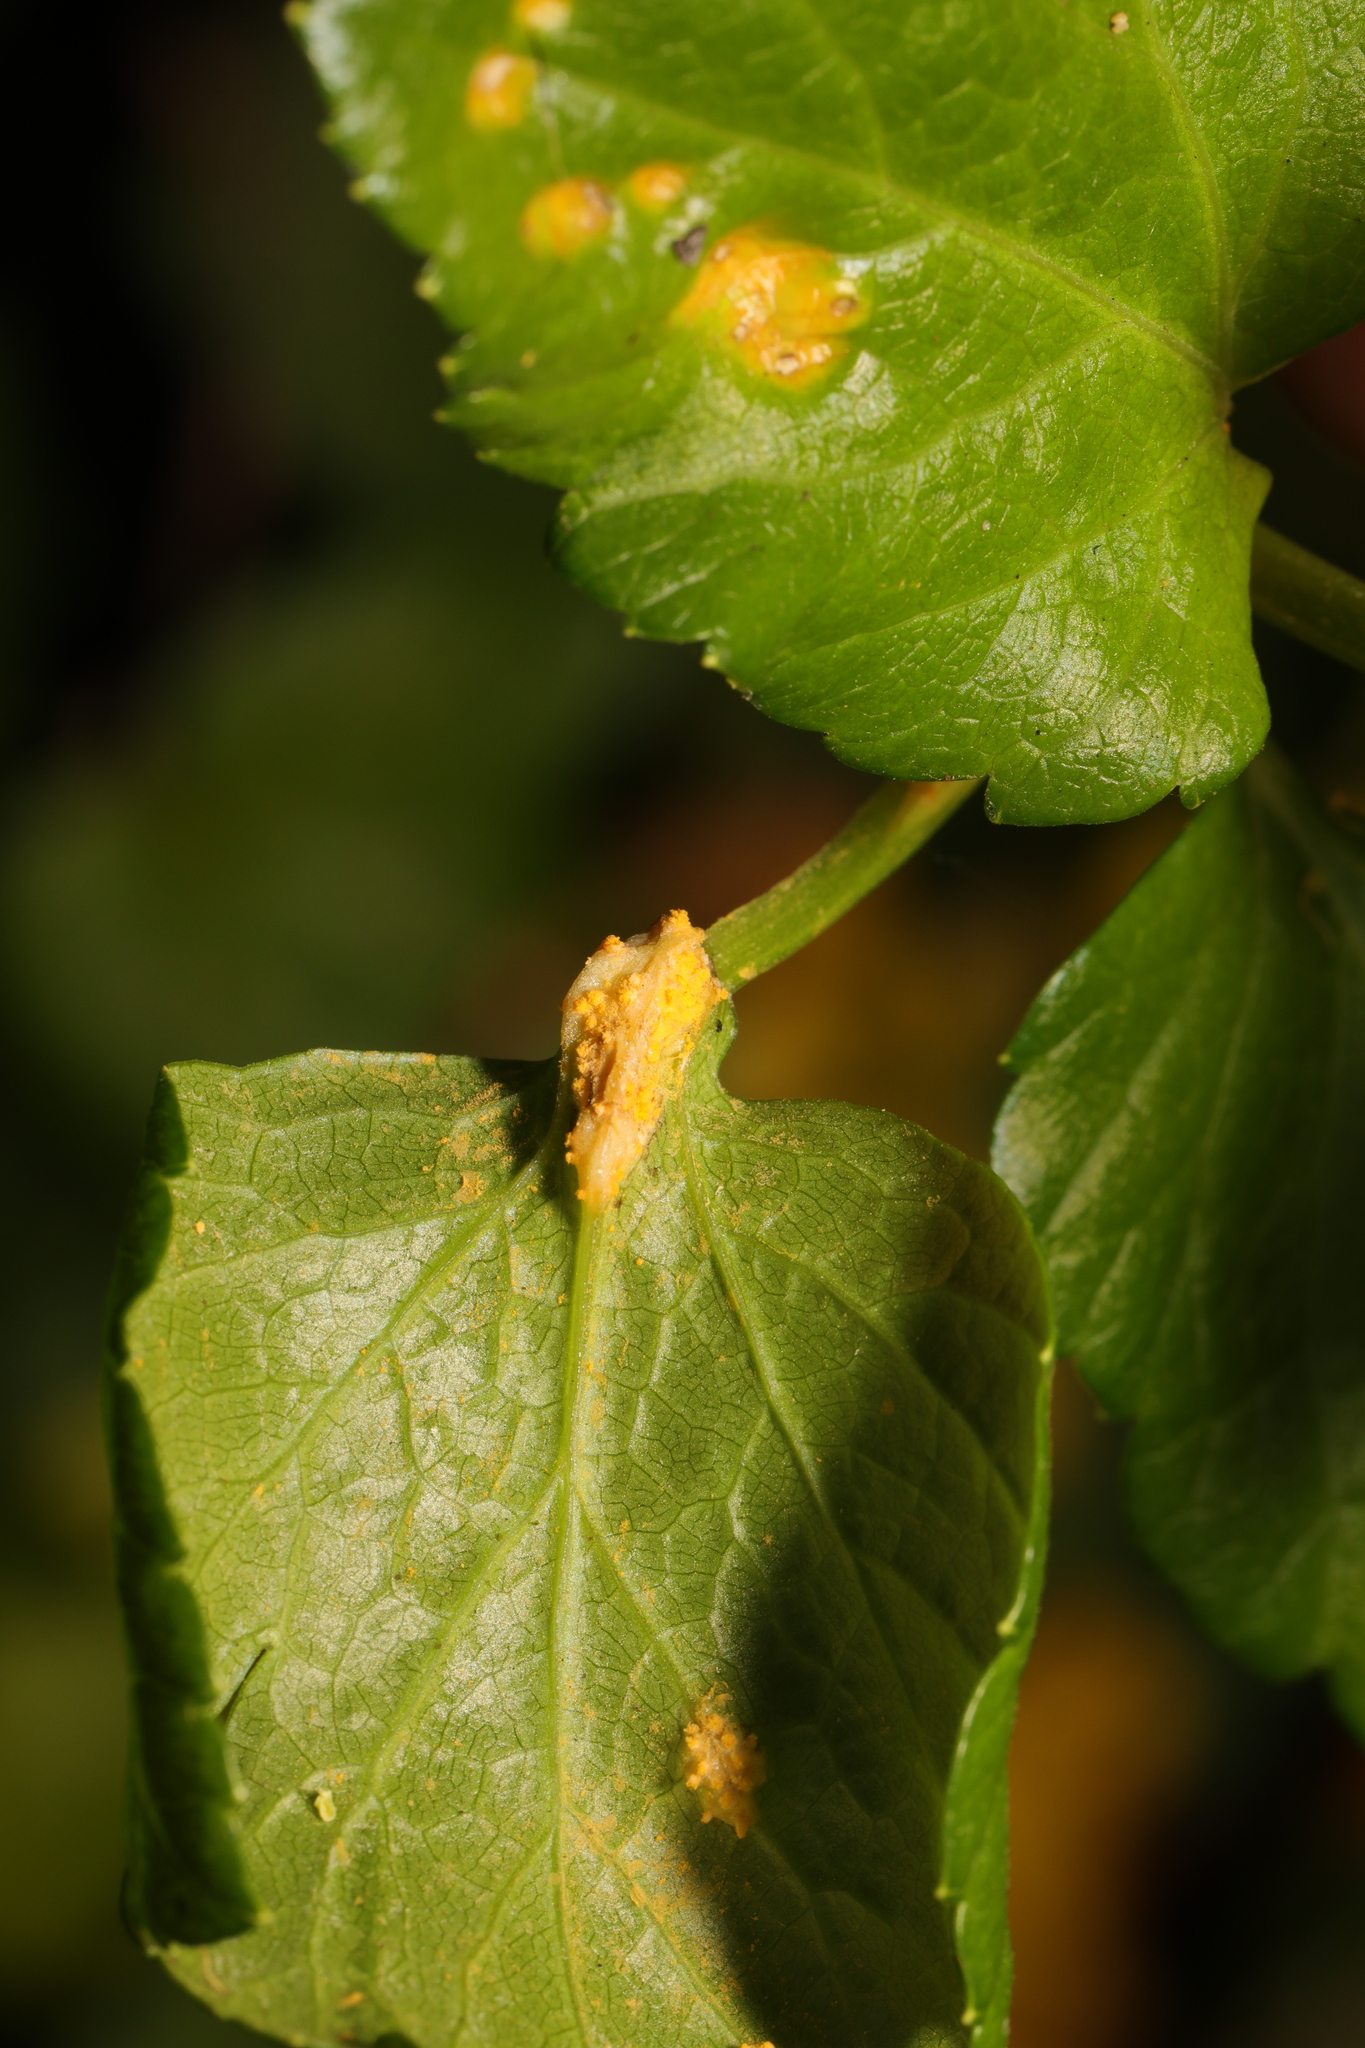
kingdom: Fungi
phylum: Basidiomycota
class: Pucciniomycetes
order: Pucciniales
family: Pucciniaceae
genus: Puccinia
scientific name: Puccinia smyrnii
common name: Alexanders rust
